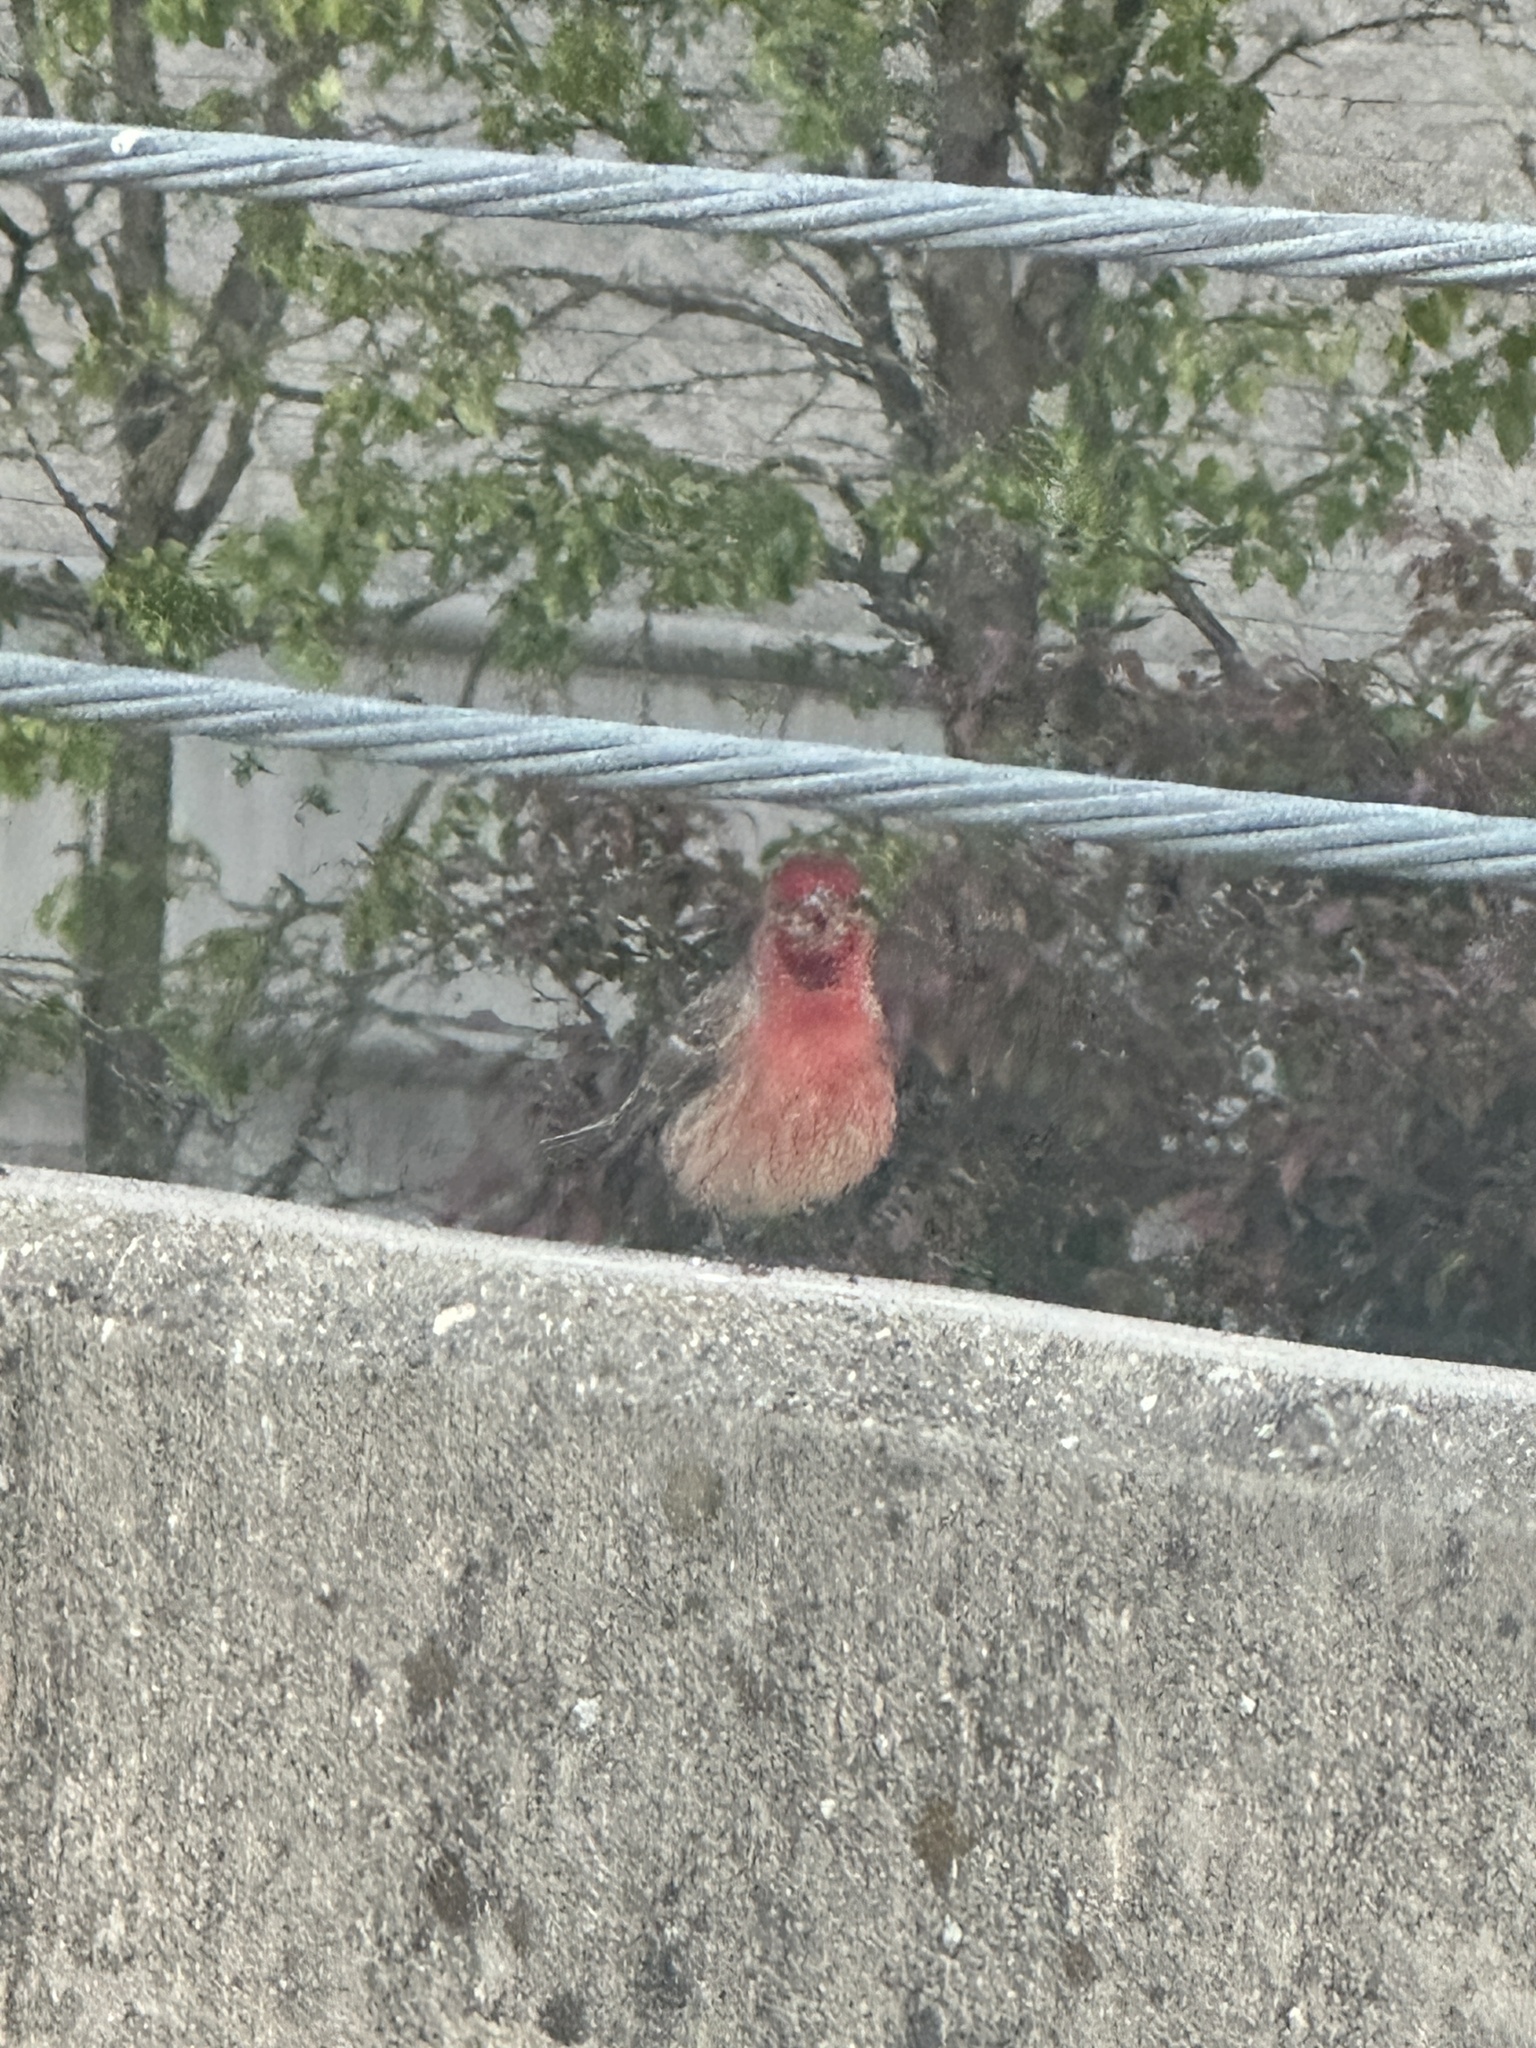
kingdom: Animalia
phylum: Chordata
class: Aves
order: Passeriformes
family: Fringillidae
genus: Haemorhous
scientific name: Haemorhous mexicanus
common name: House finch
